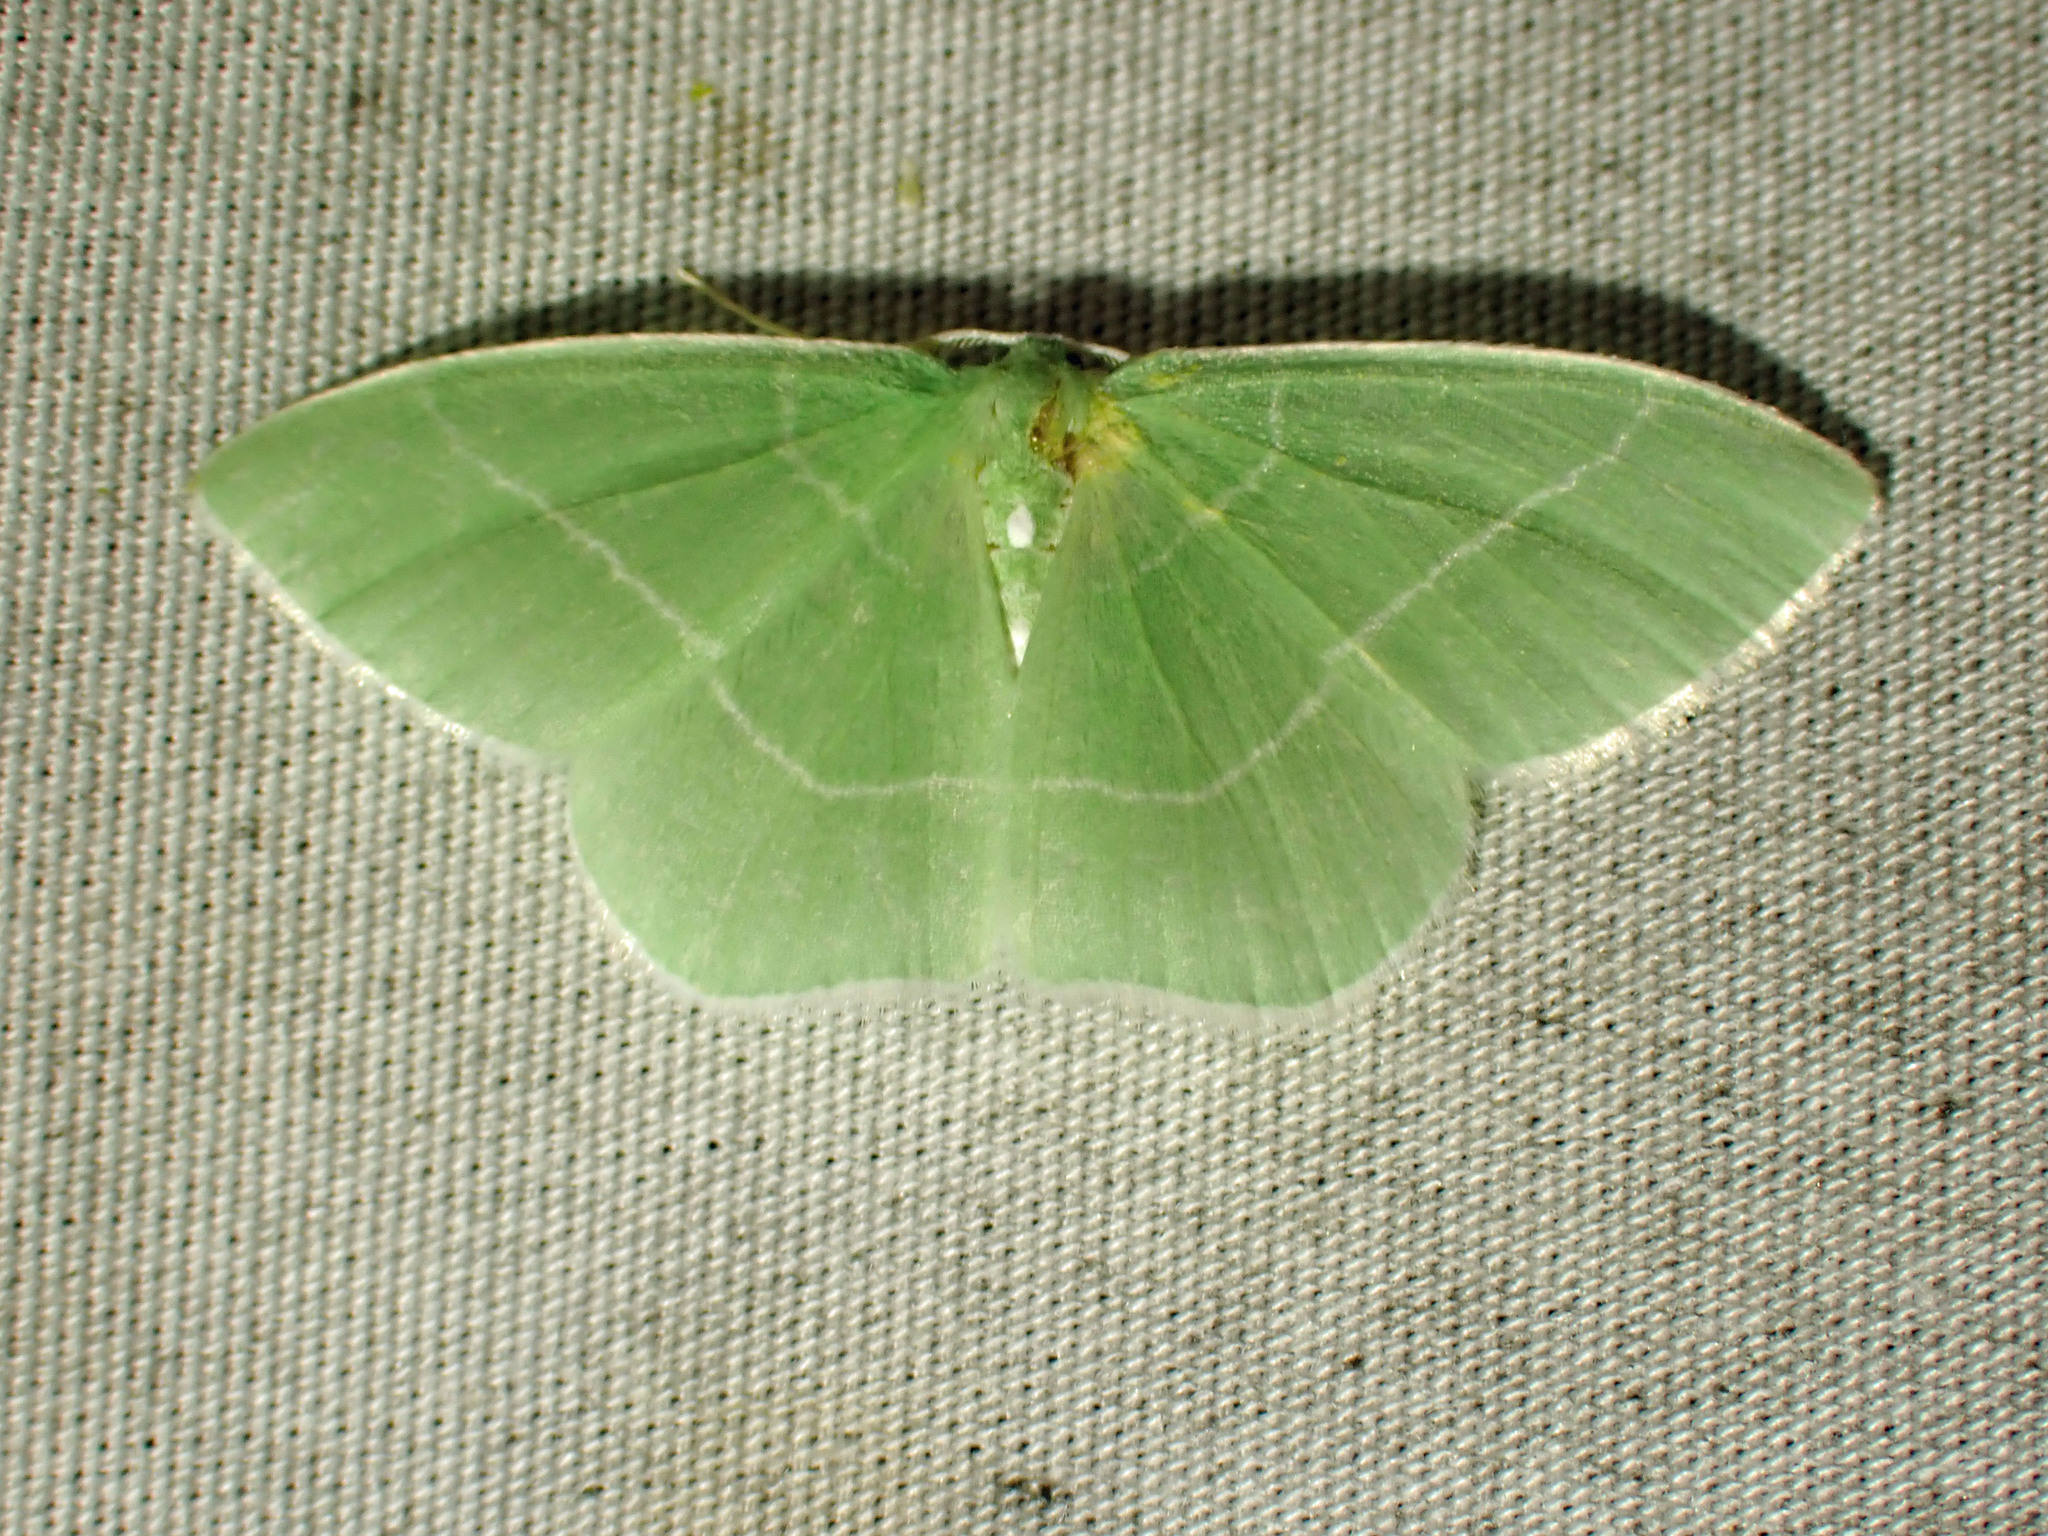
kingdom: Animalia
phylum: Arthropoda
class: Insecta
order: Lepidoptera
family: Geometridae
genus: Nemoria
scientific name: Nemoria mimosaria
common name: White-fringed emerald
